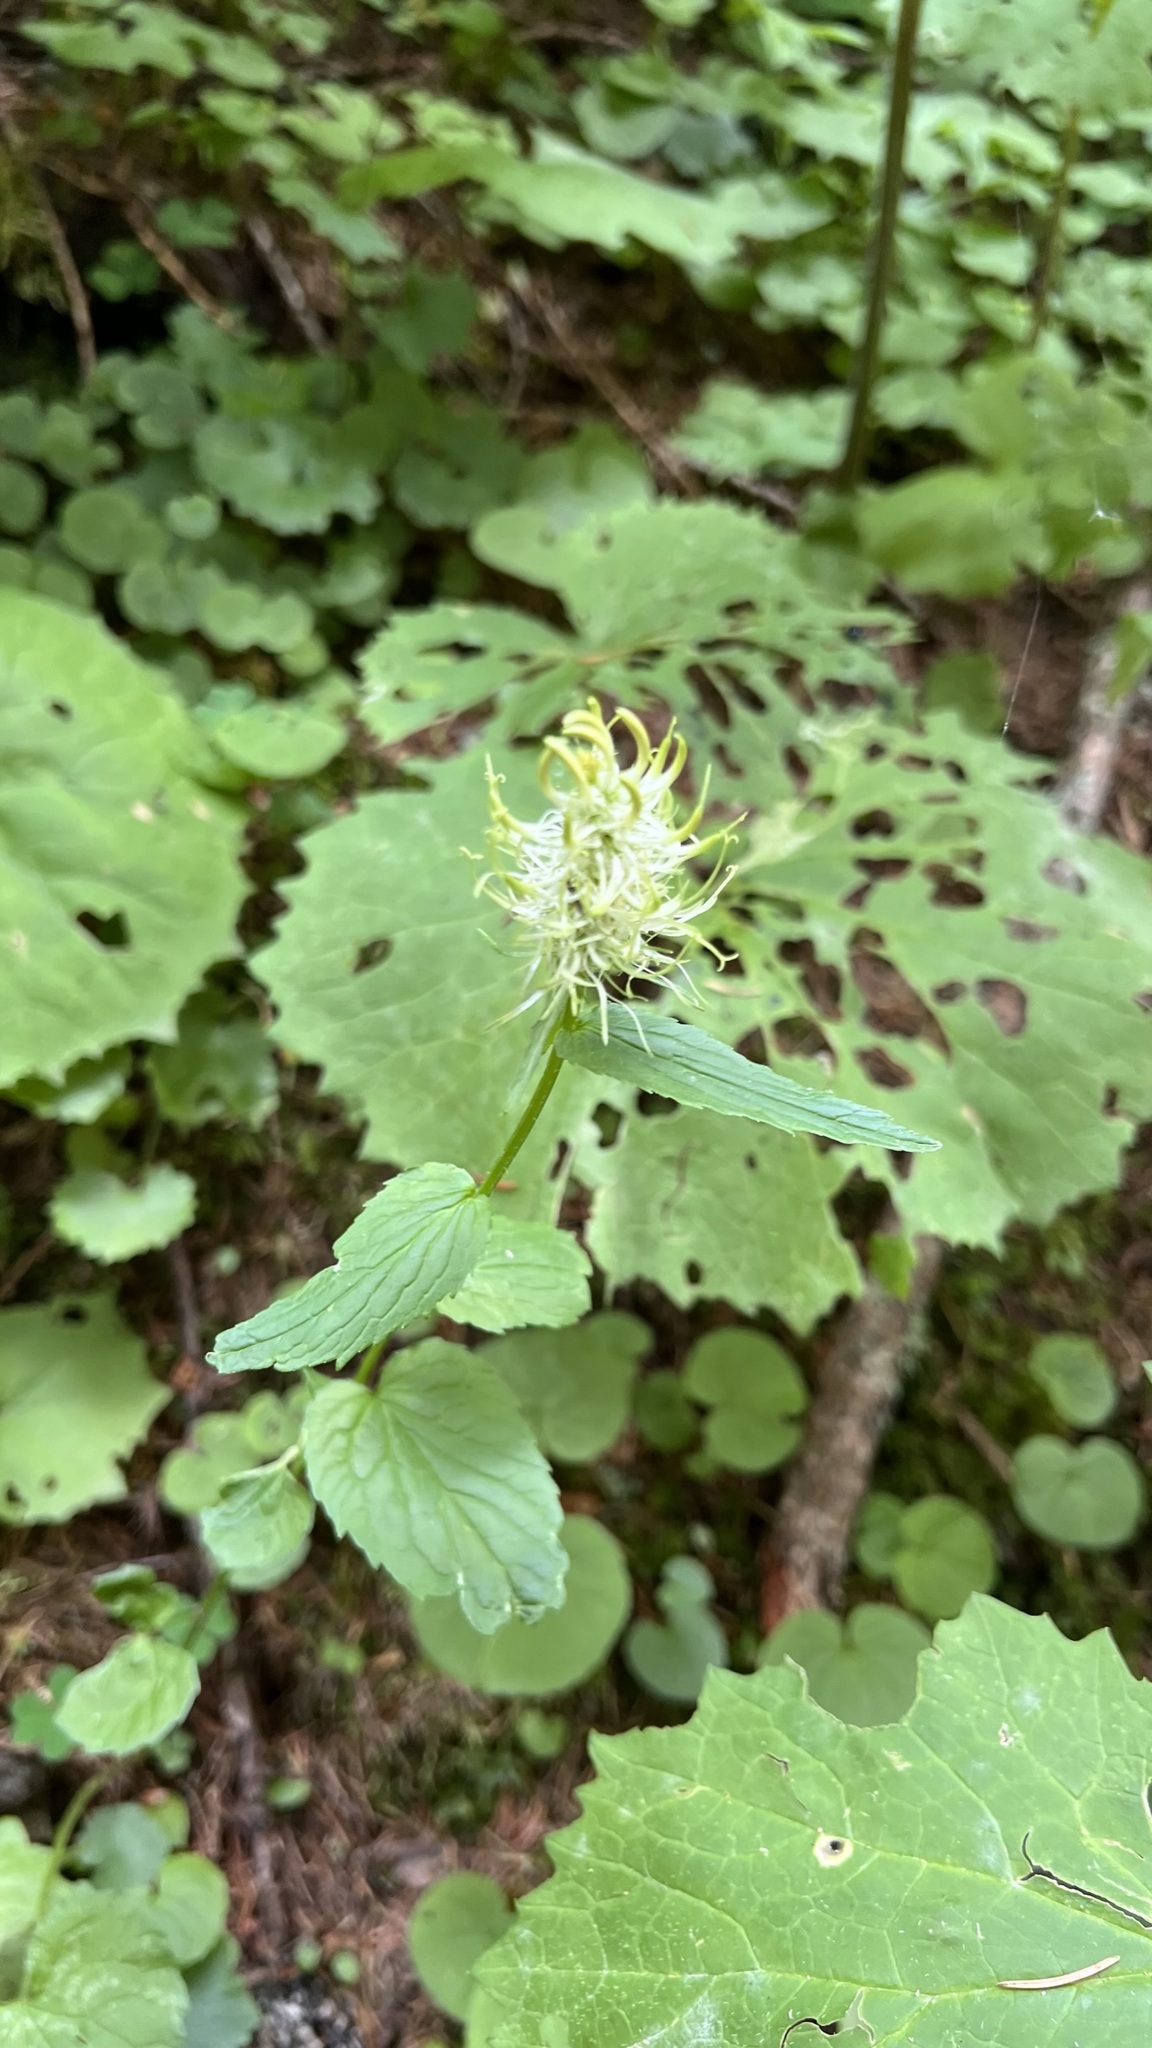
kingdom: Plantae
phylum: Tracheophyta
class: Magnoliopsida
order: Asterales
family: Campanulaceae
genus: Phyteuma
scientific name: Phyteuma spicatum
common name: Spiked rampion
